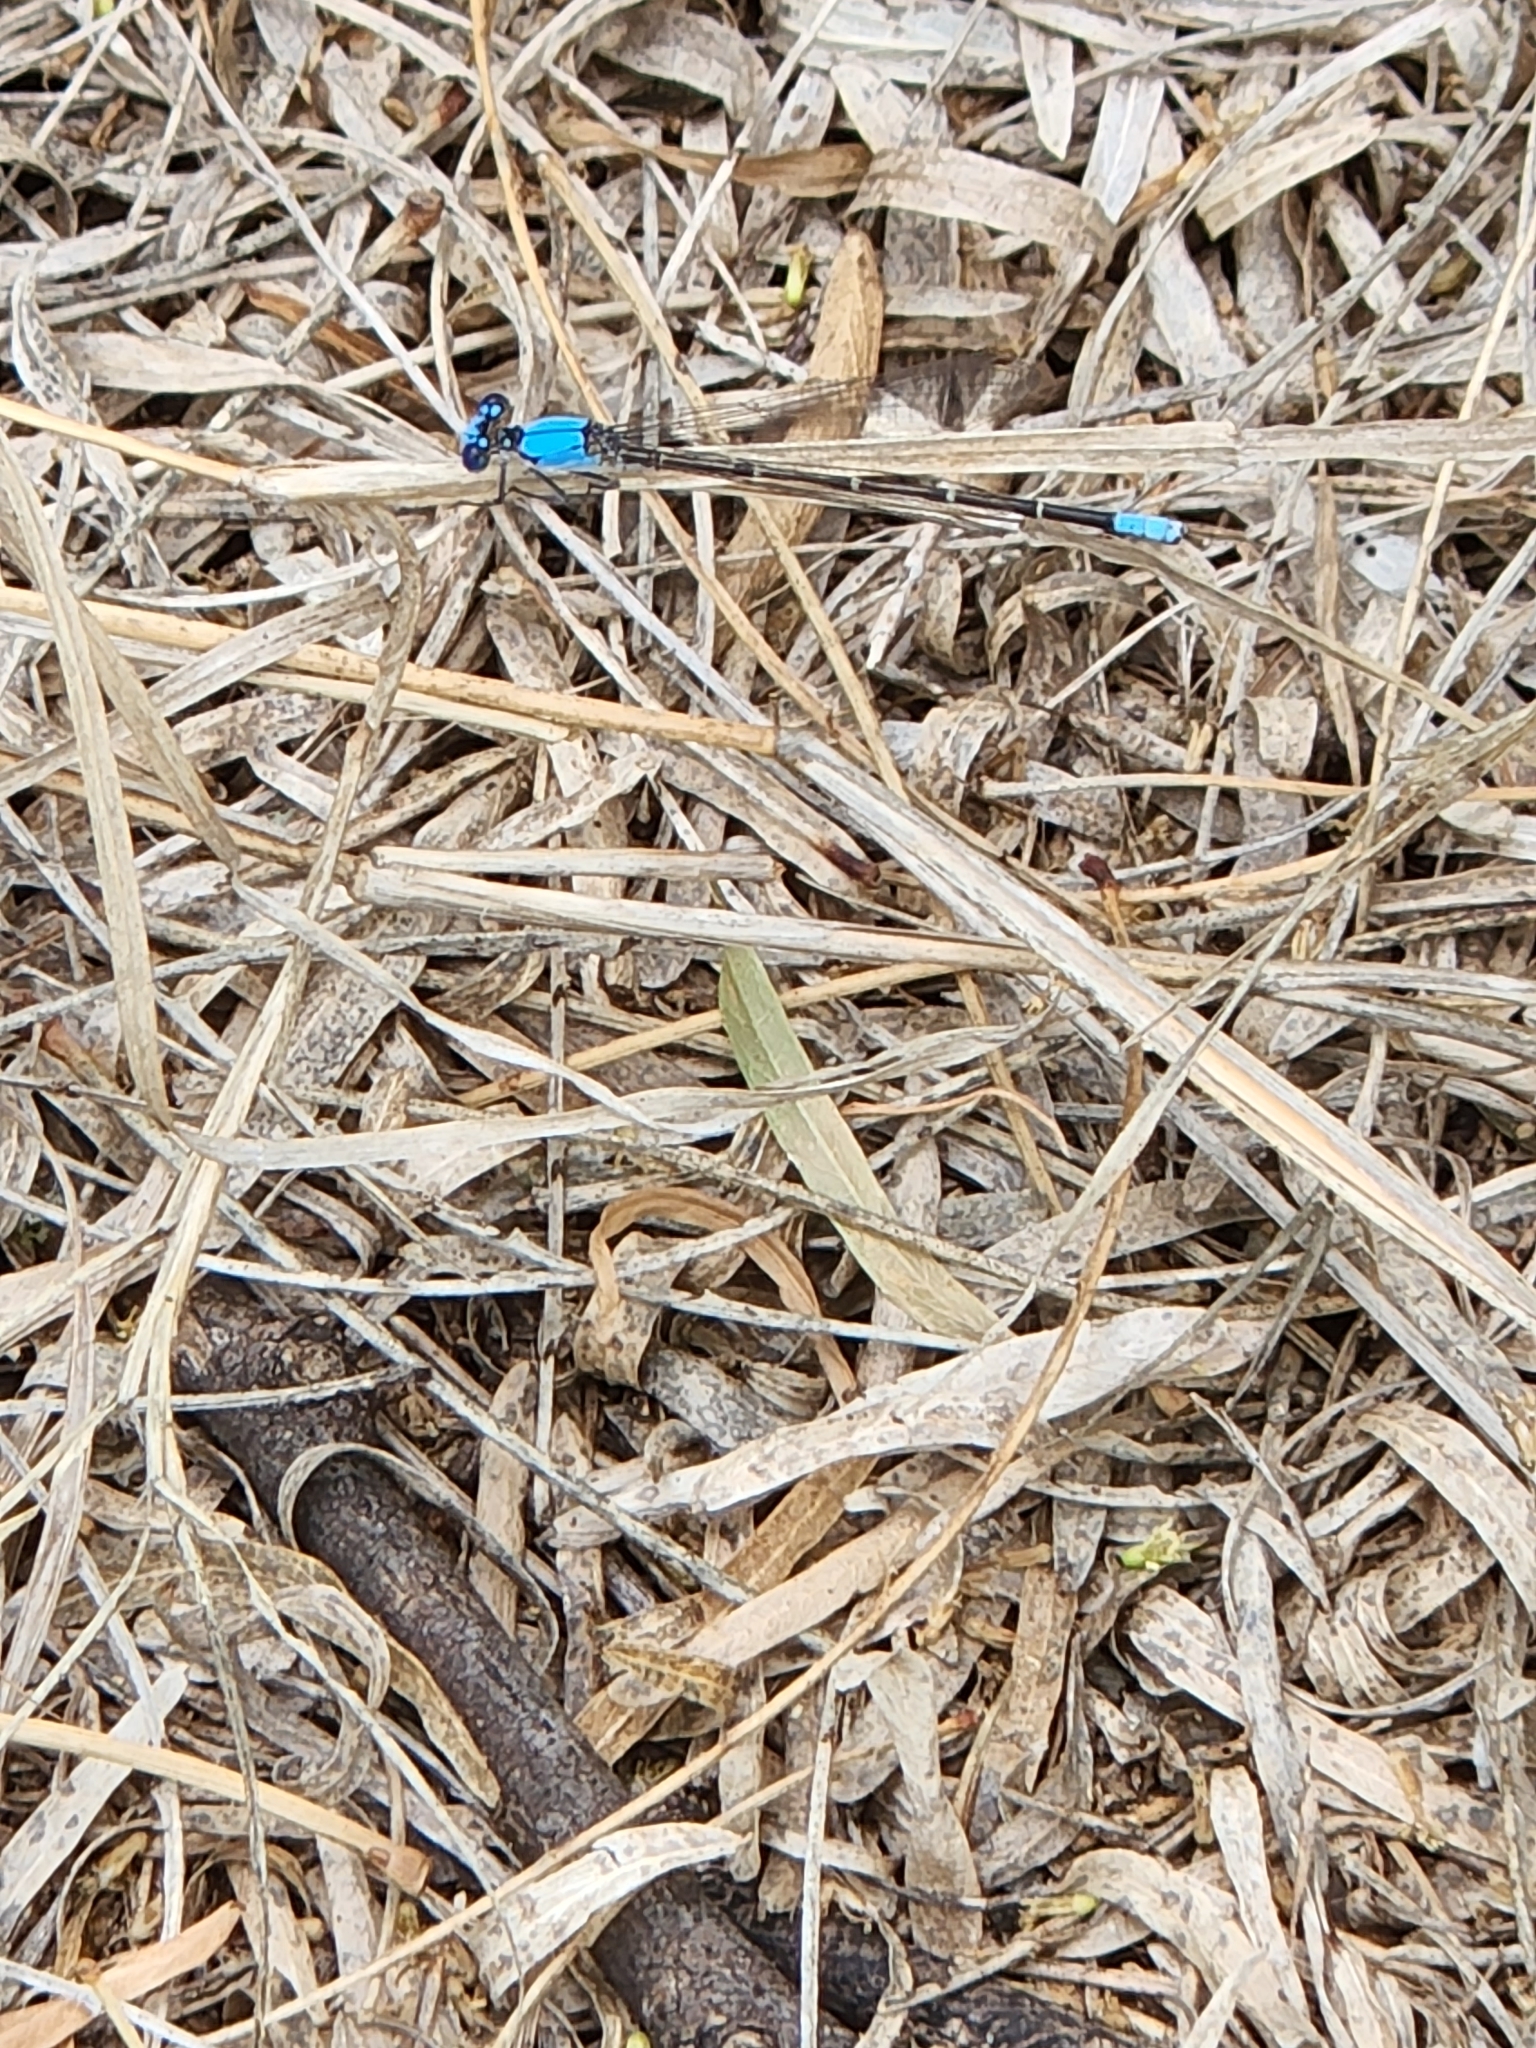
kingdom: Animalia
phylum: Arthropoda
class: Insecta
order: Odonata
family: Coenagrionidae
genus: Argia
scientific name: Argia apicalis
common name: Blue-fronted dancer
